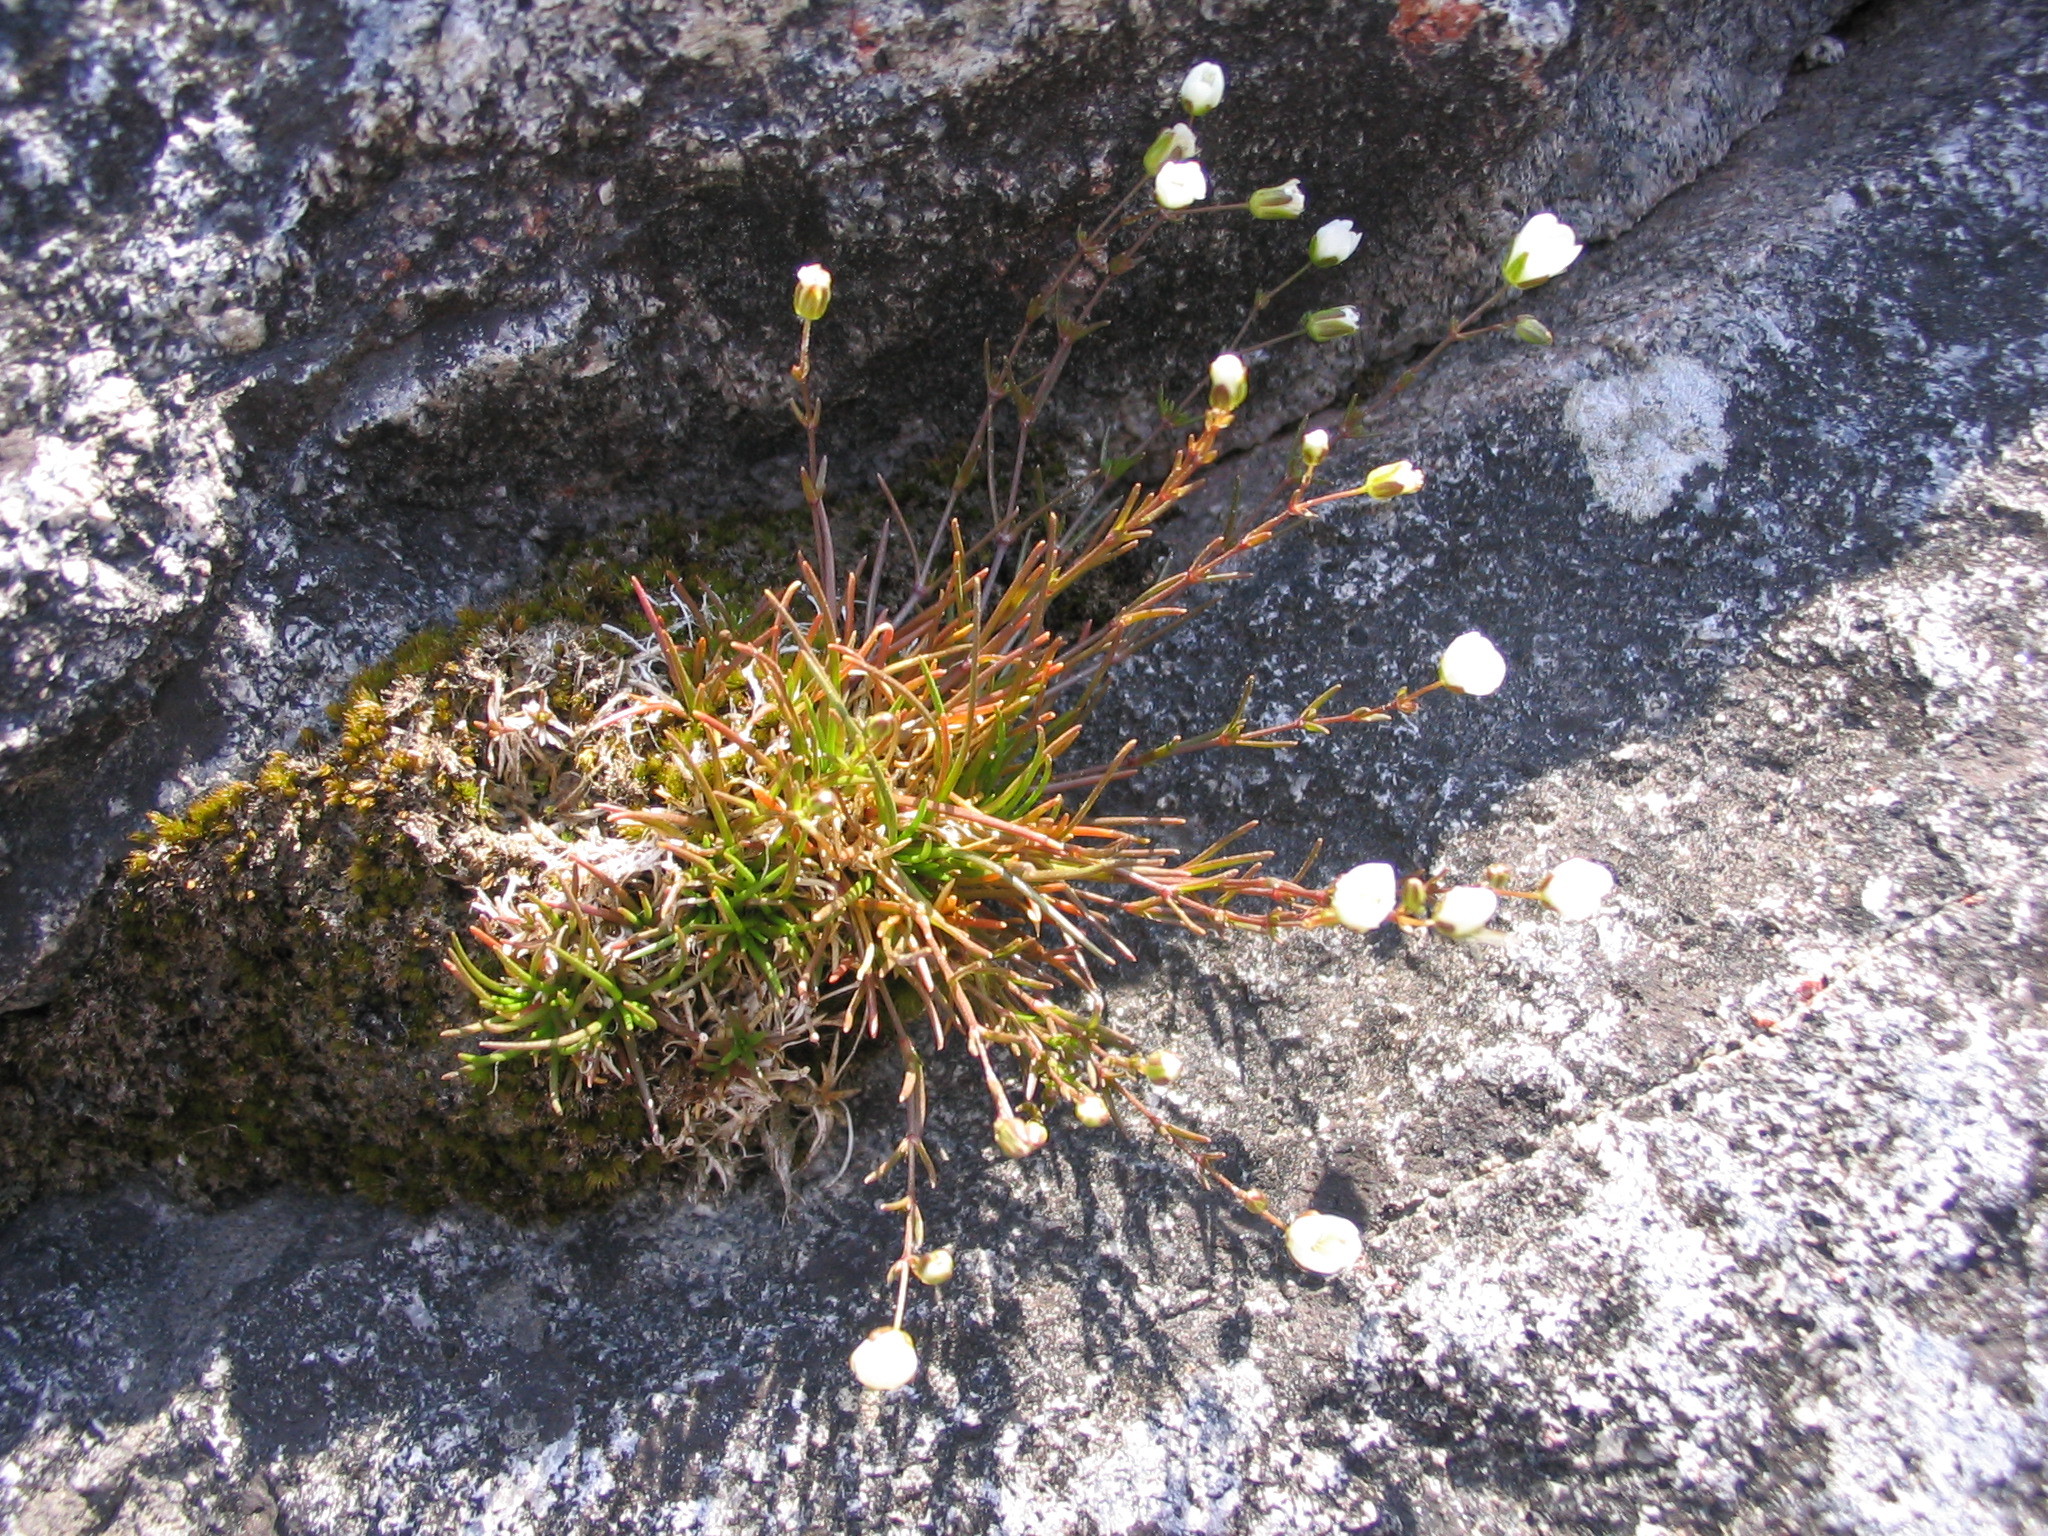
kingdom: Plantae
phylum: Tracheophyta
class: Magnoliopsida
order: Caryophyllales
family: Caryophyllaceae
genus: Sagina
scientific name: Sagina nodosa
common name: Knotted pearlwort
